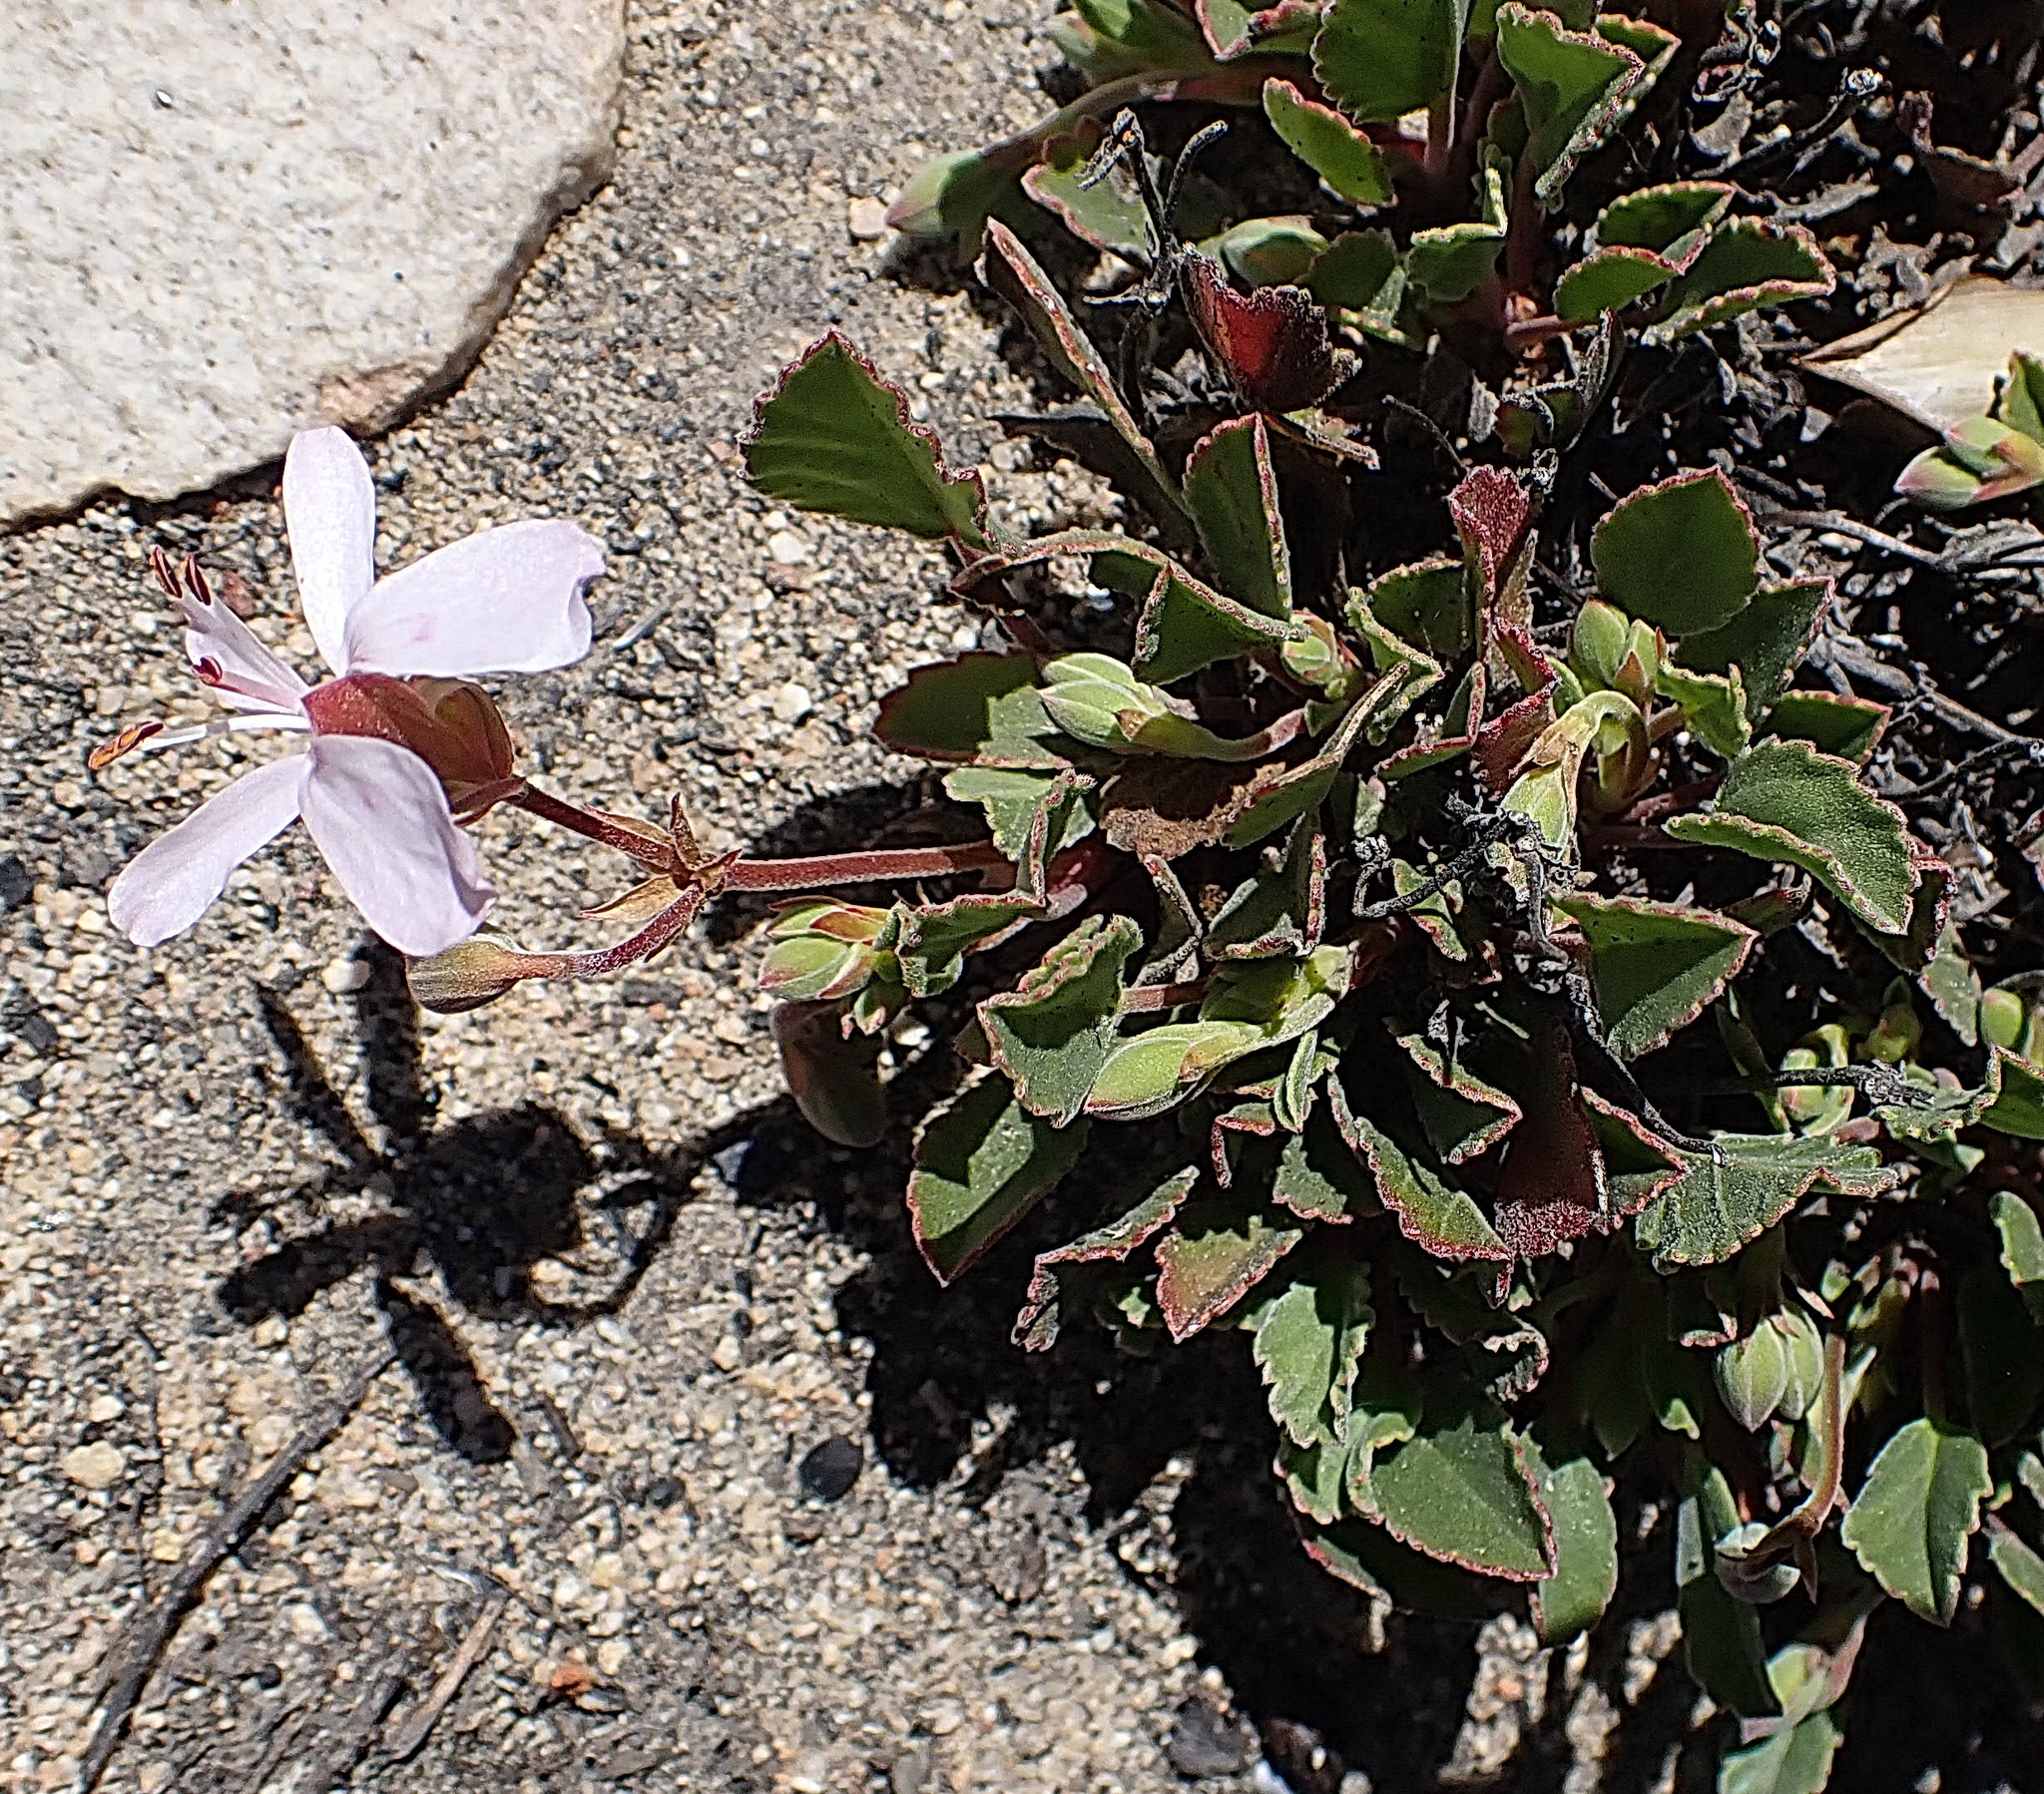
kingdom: Plantae
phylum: Tracheophyta
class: Magnoliopsida
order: Geraniales
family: Geraniaceae
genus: Pelargonium
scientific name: Pelargonium ovale
